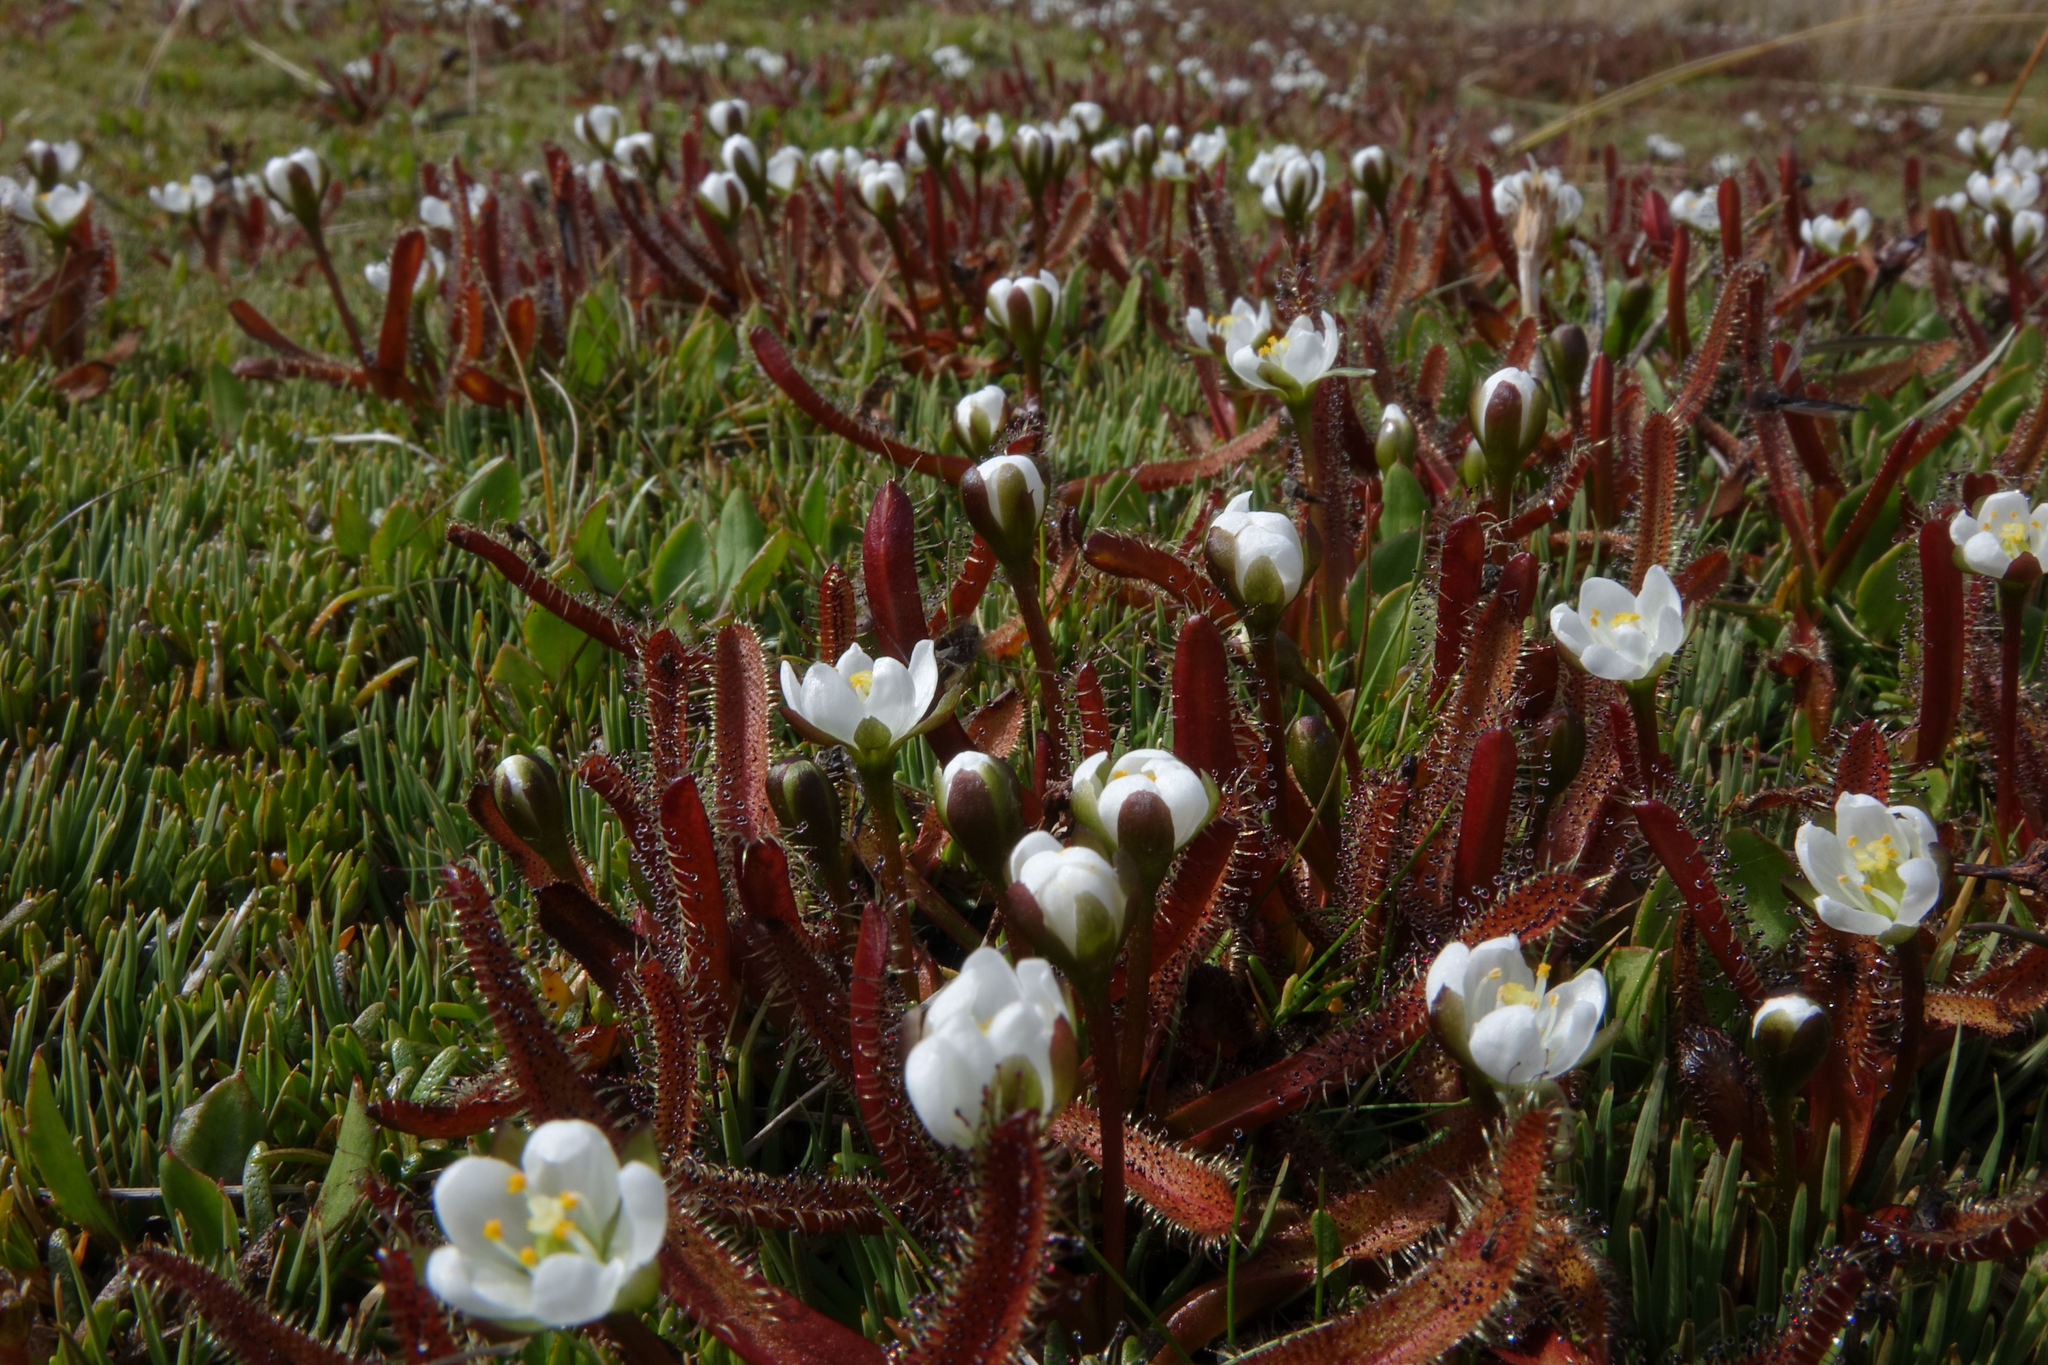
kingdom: Plantae
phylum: Tracheophyta
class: Magnoliopsida
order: Caryophyllales
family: Droseraceae
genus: Drosera
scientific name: Drosera arcturi
